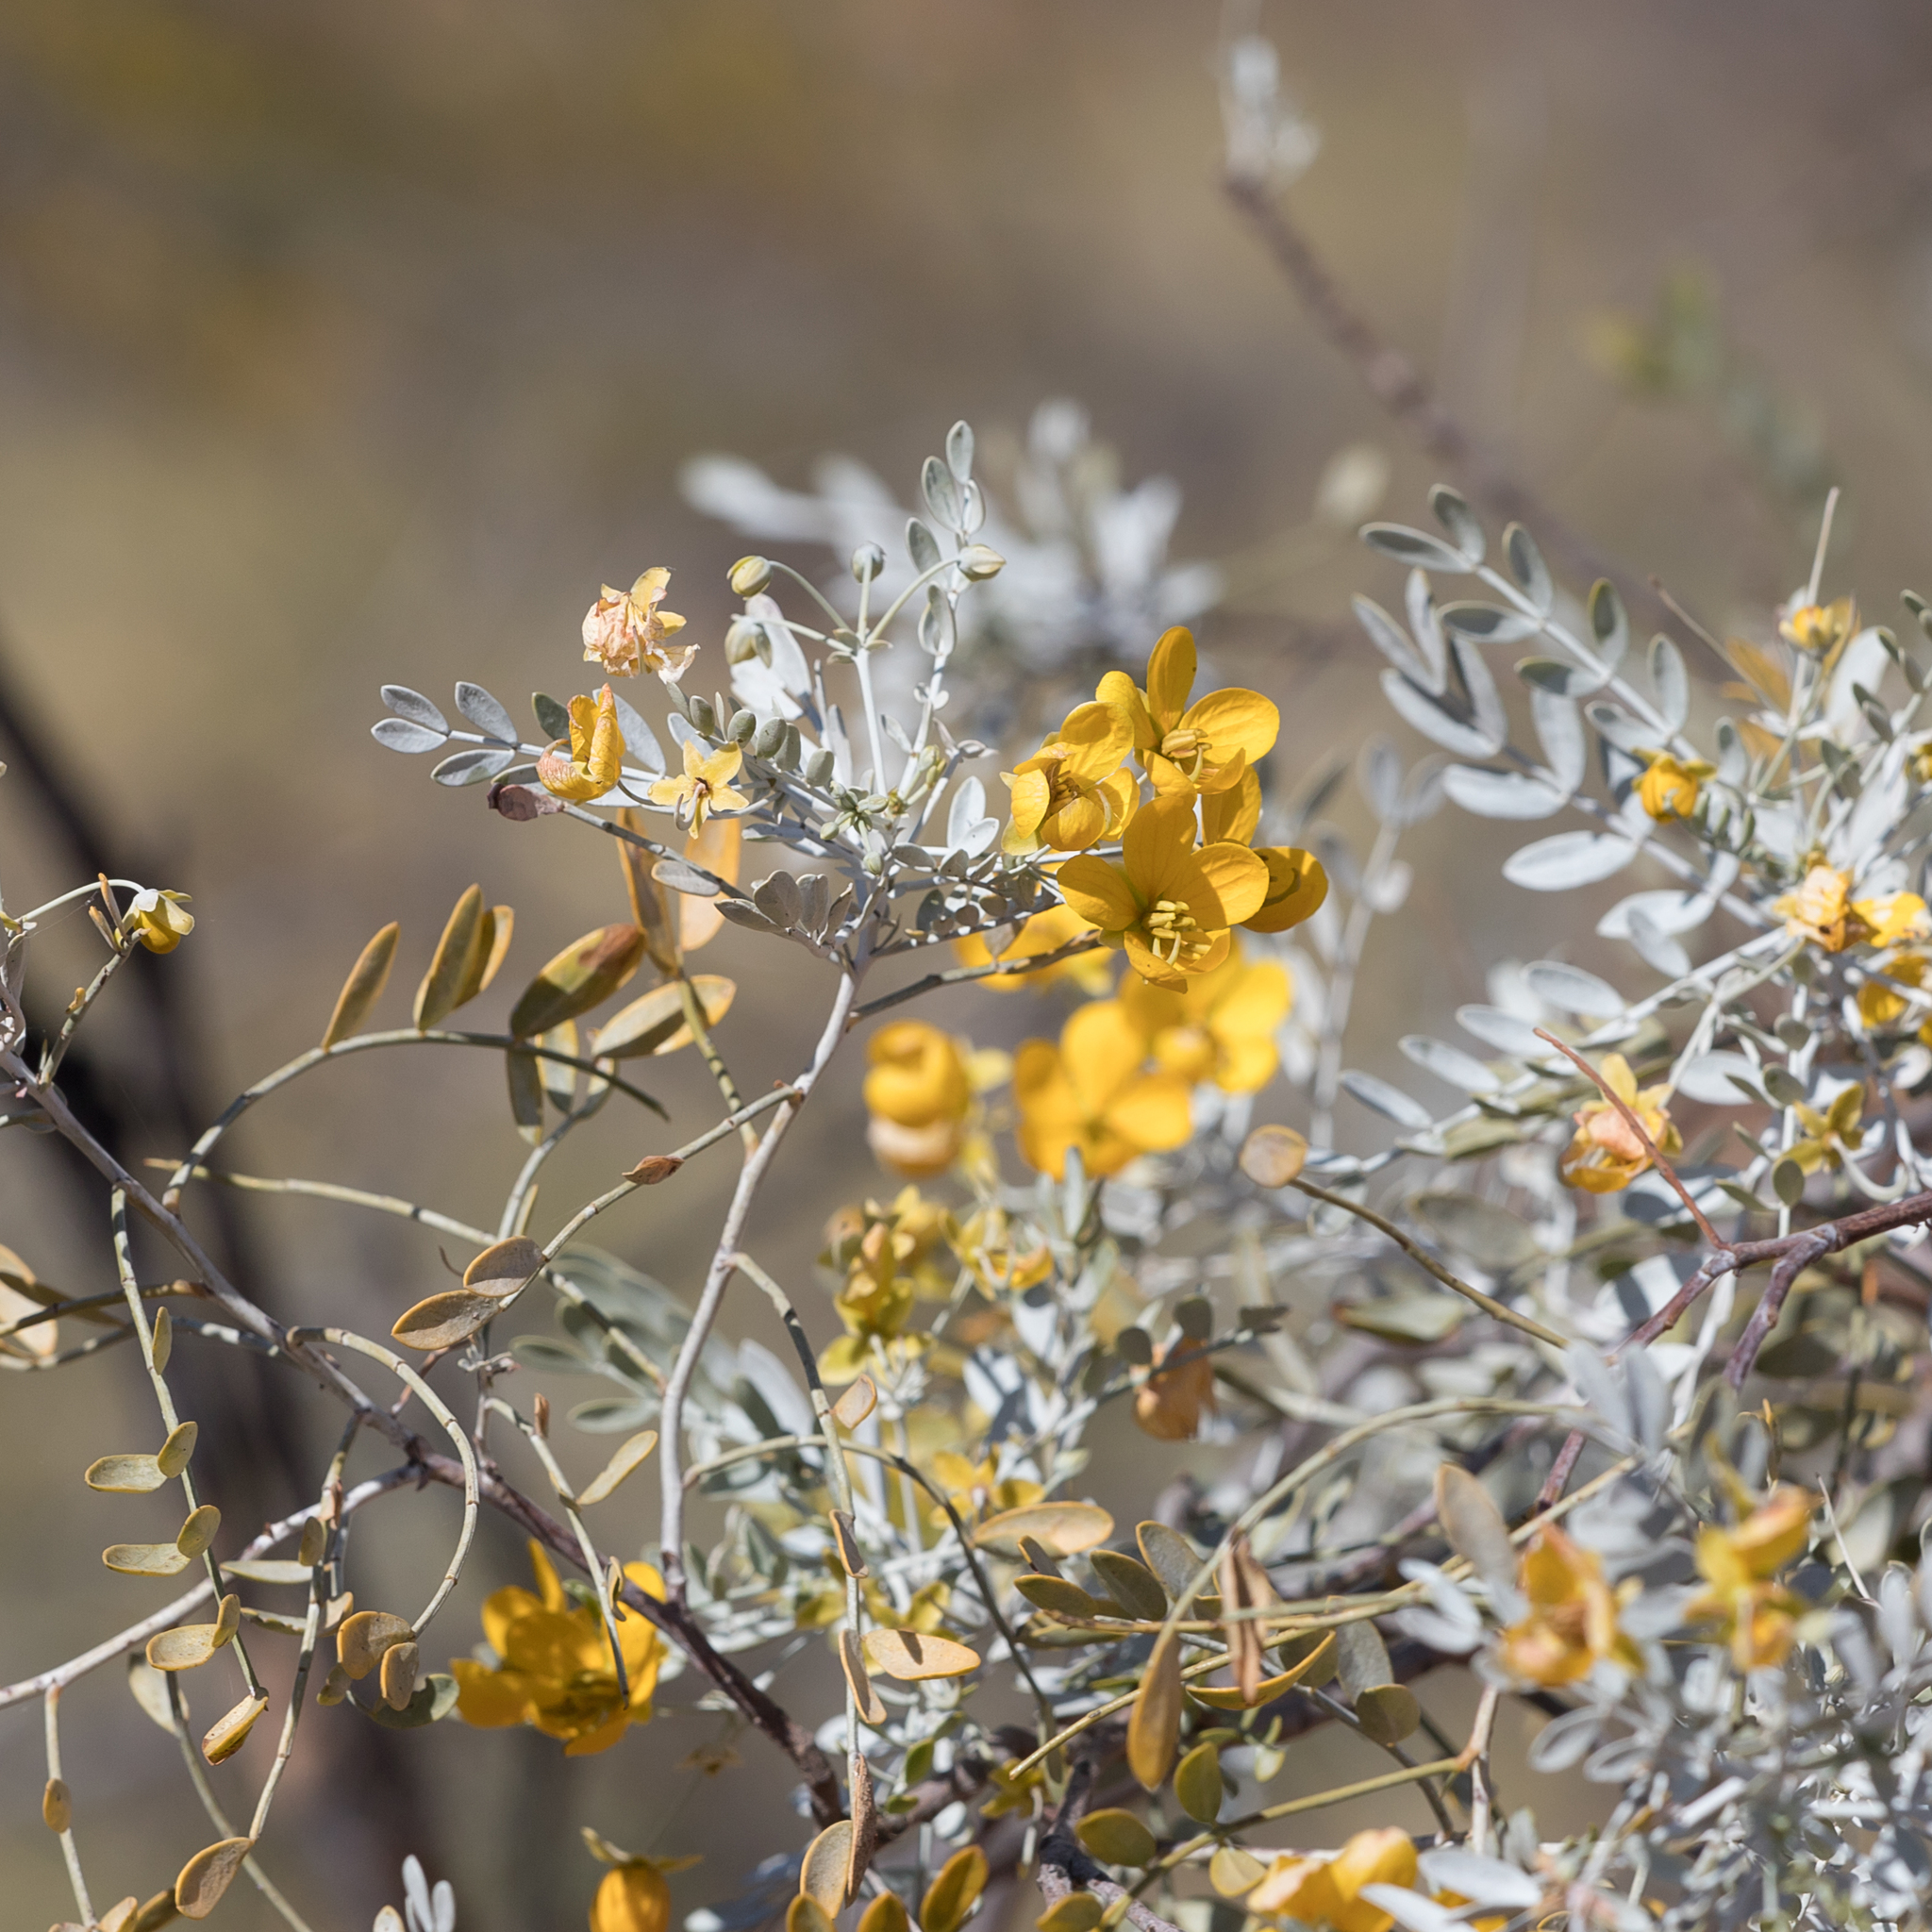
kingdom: Plantae
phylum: Tracheophyta
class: Magnoliopsida
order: Fabales
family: Fabaceae
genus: Senna
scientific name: Senna glutinosa
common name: Green acacia
